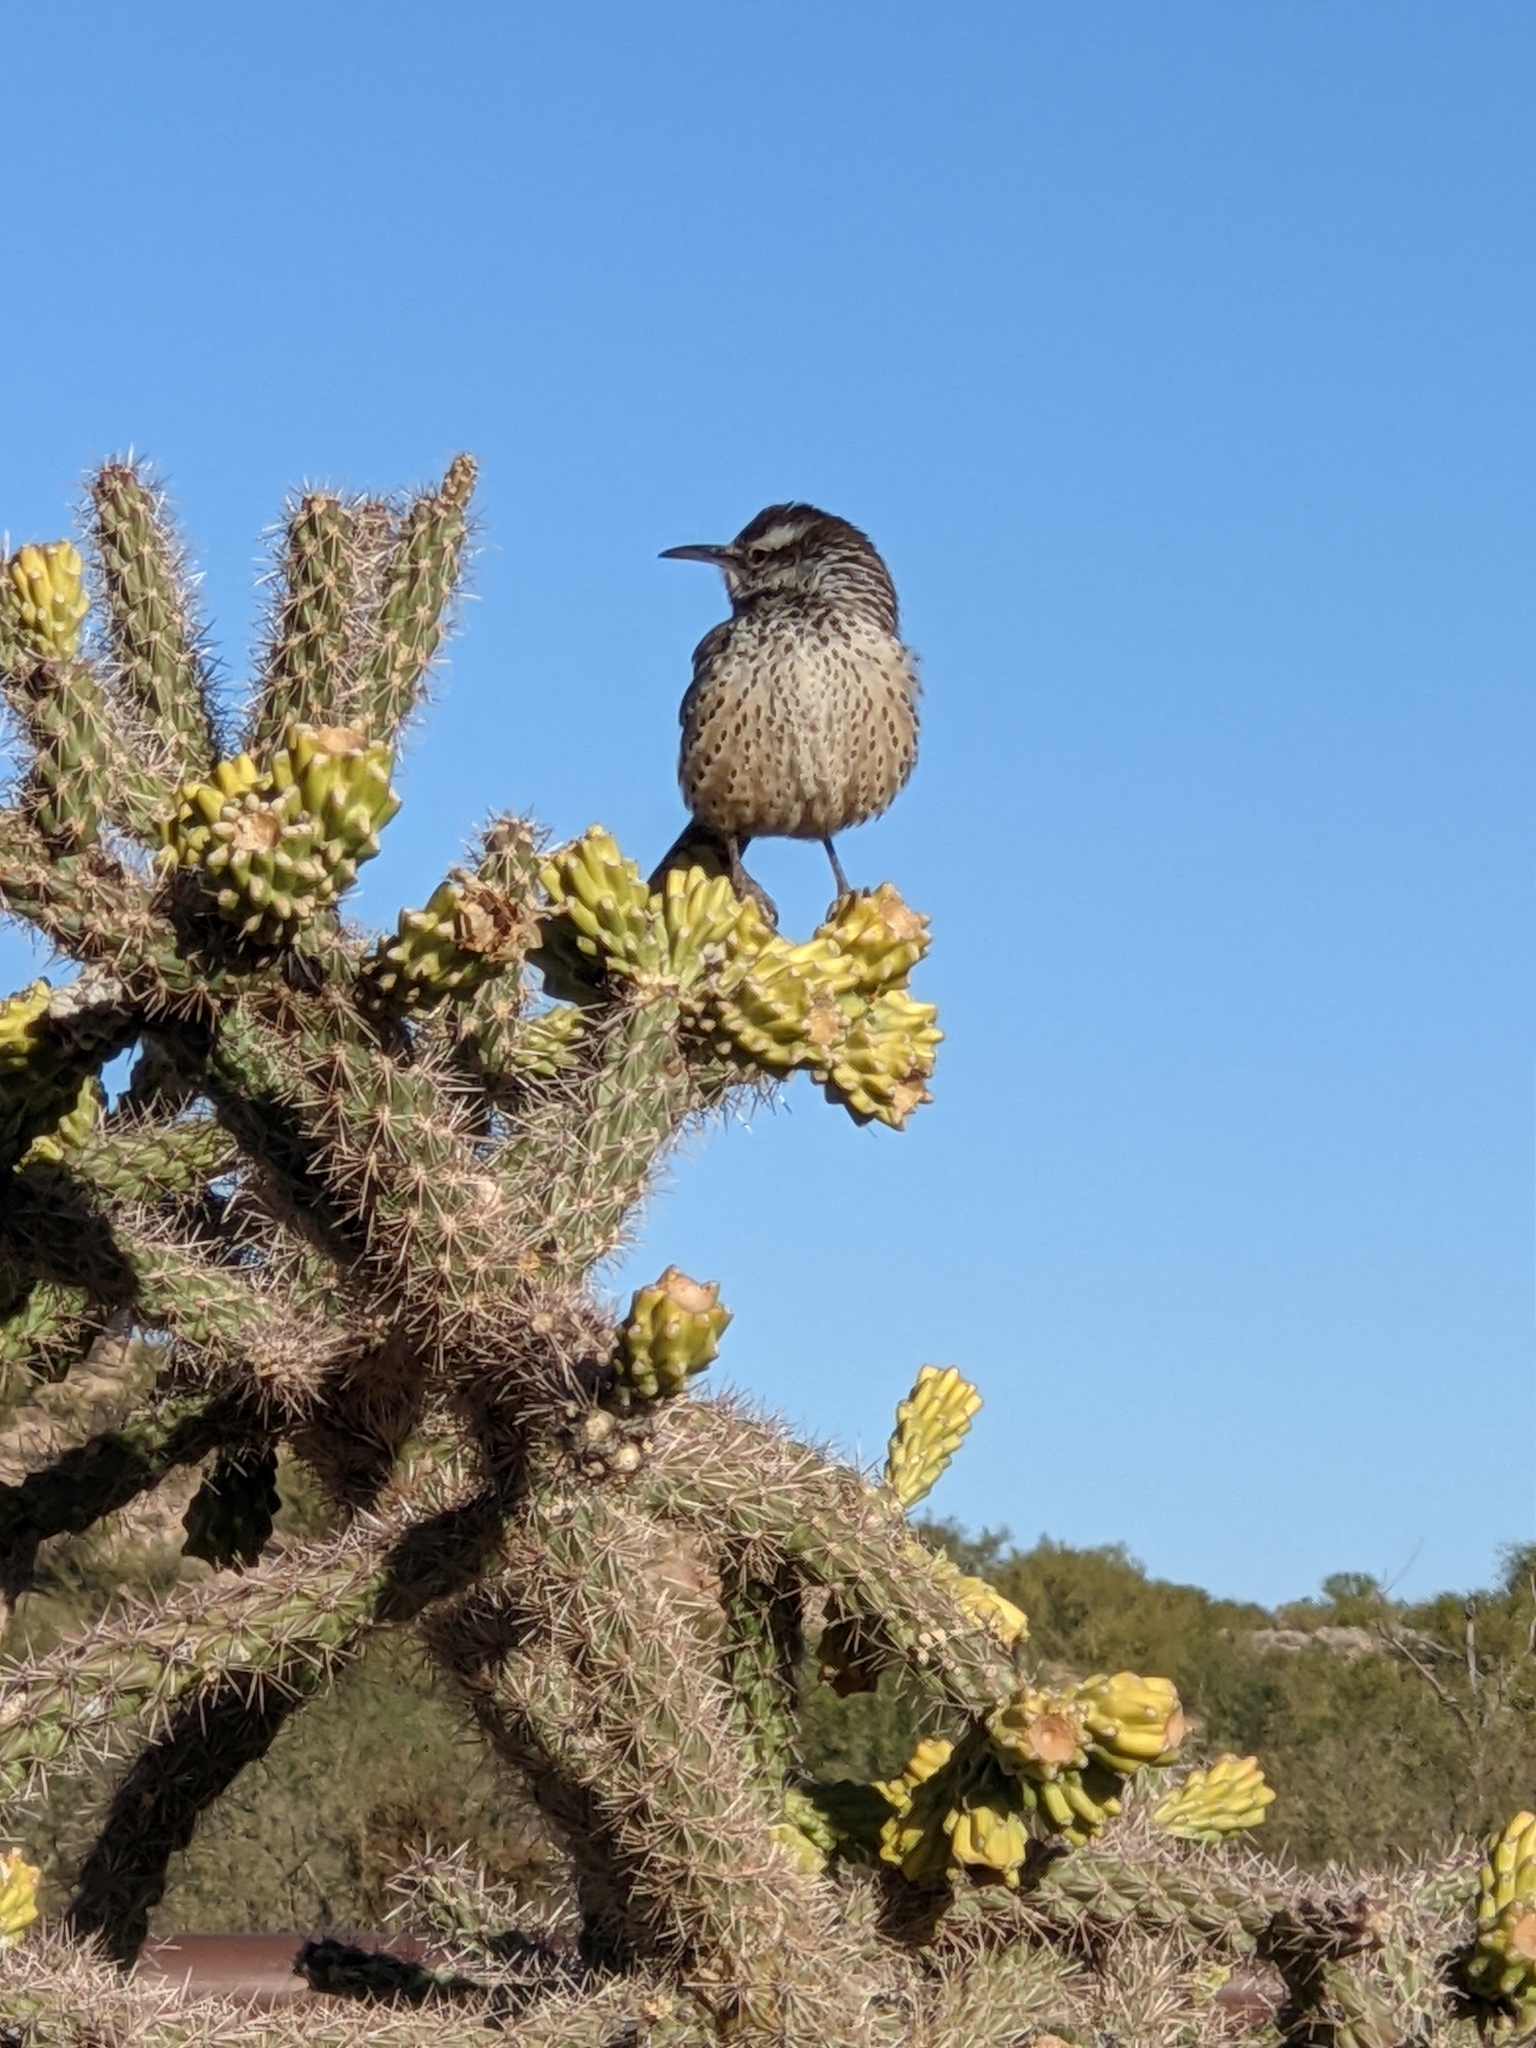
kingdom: Animalia
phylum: Chordata
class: Aves
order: Passeriformes
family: Troglodytidae
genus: Campylorhynchus
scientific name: Campylorhynchus brunneicapillus
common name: Cactus wren
